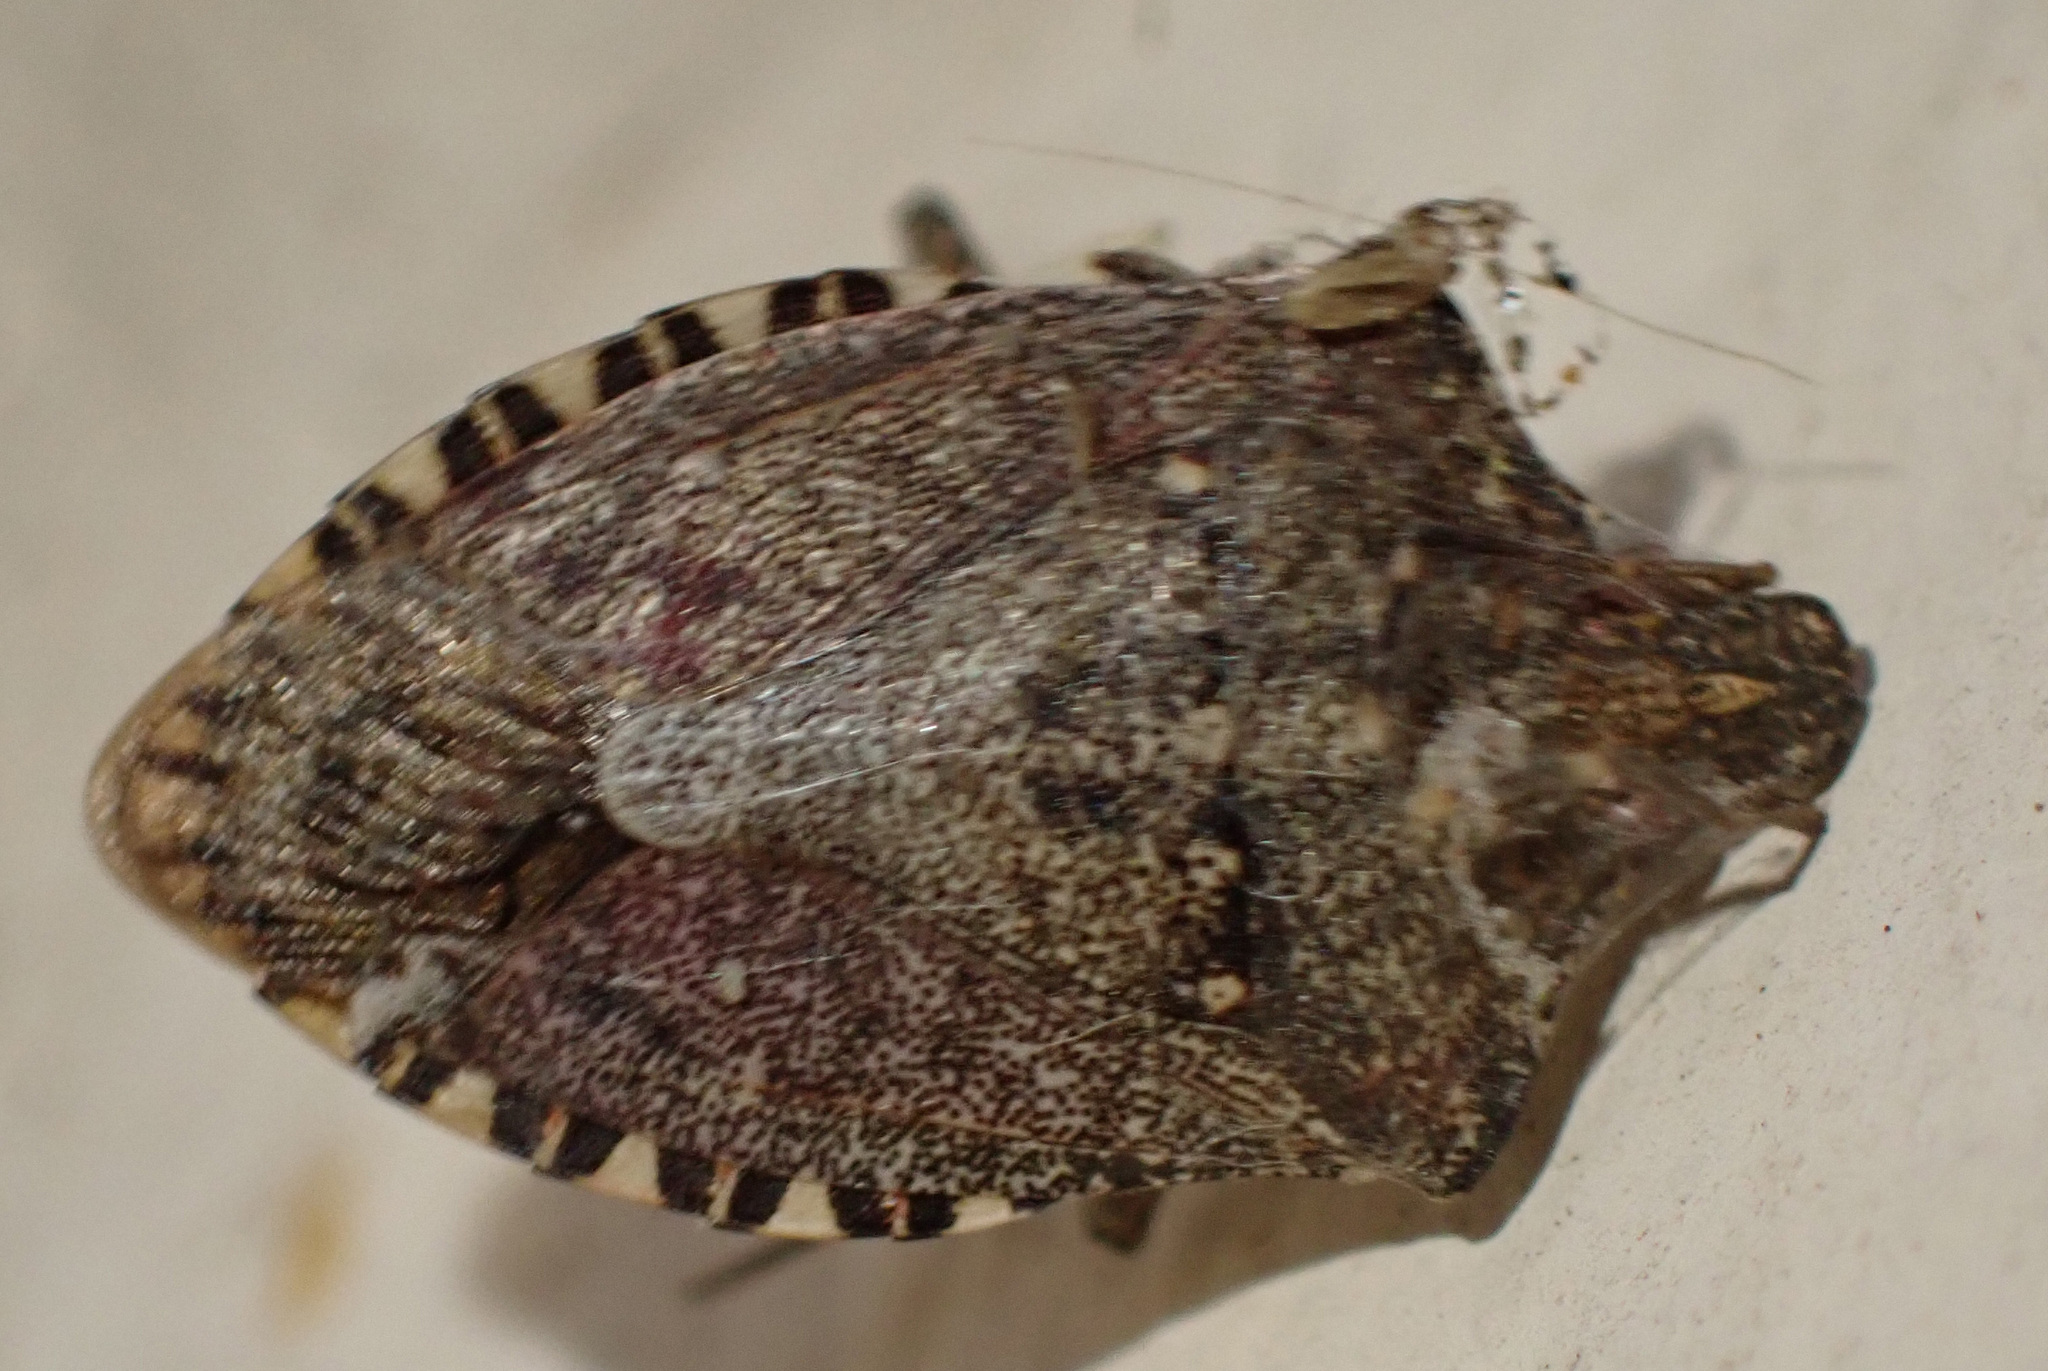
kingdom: Animalia
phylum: Arthropoda
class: Insecta
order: Hemiptera
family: Pentatomidae
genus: Halyomorpha
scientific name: Halyomorpha halys
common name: Brown marmorated stink bug
